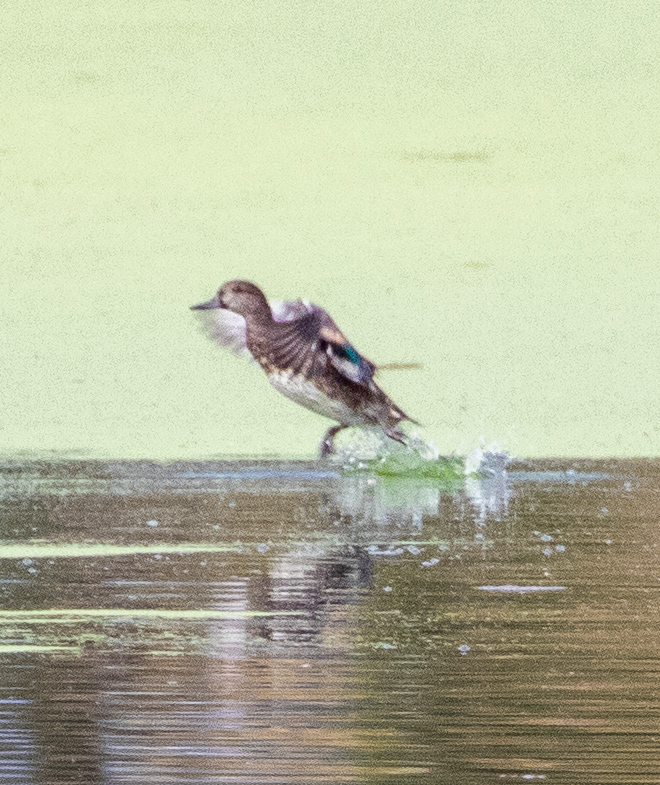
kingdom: Animalia
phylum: Chordata
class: Aves
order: Anseriformes
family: Anatidae
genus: Anas
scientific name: Anas crecca
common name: Eurasian teal
